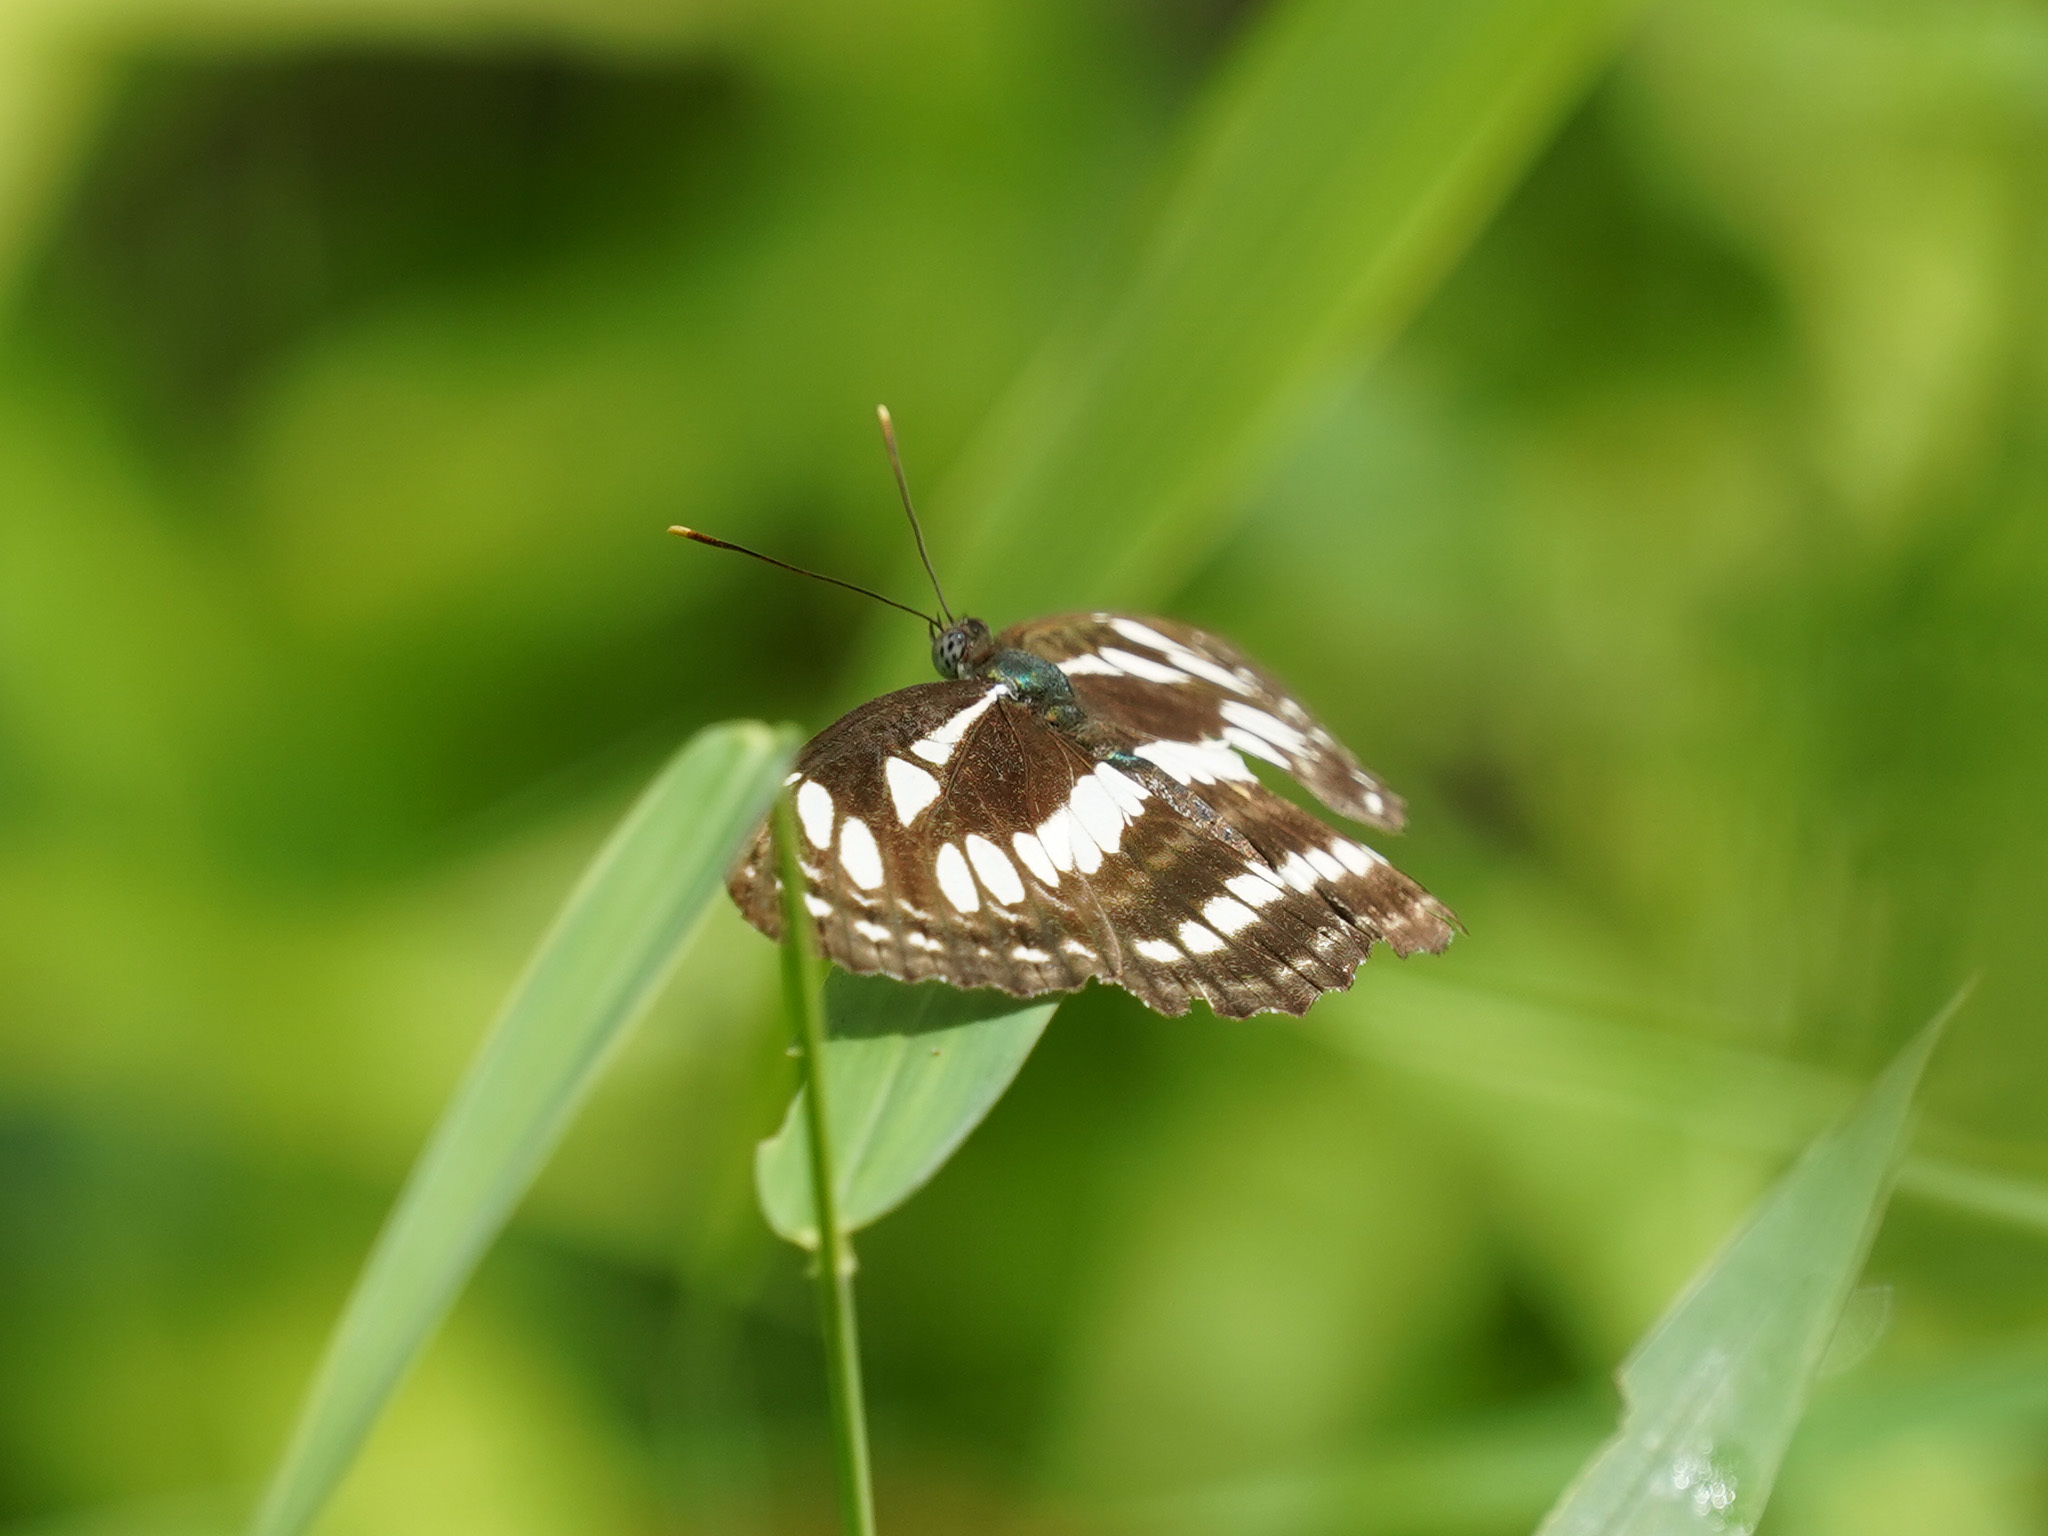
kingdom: Animalia
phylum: Arthropoda
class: Insecta
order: Lepidoptera
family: Nymphalidae
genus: Neptis
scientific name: Neptis hylas
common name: Common sailer
